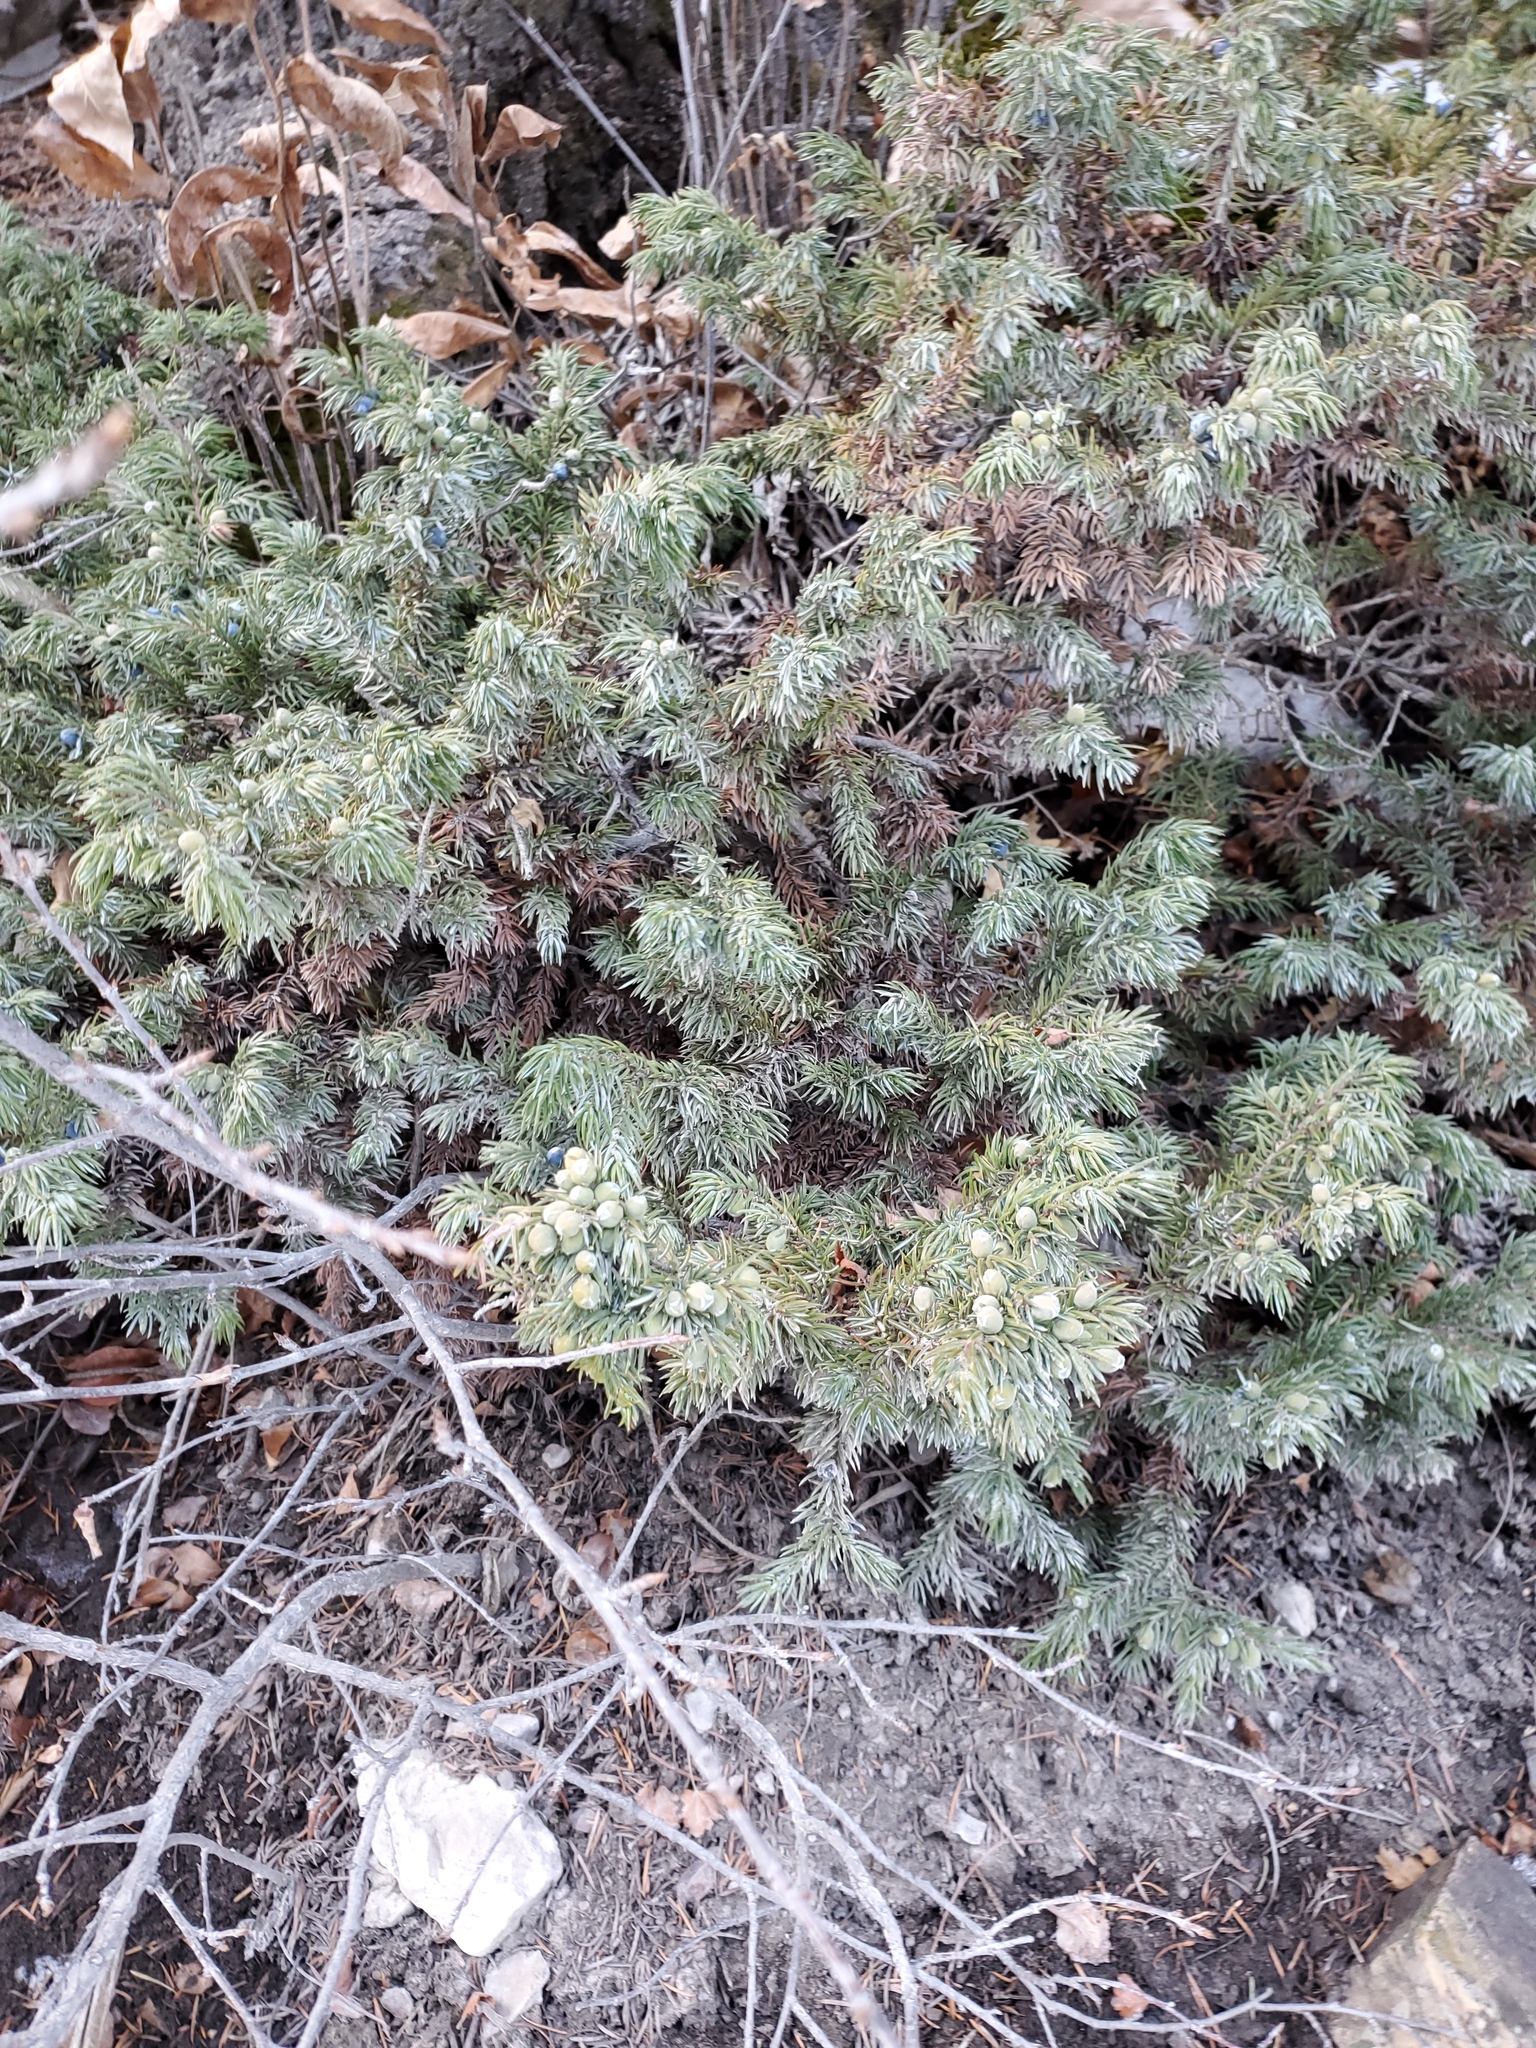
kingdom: Plantae
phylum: Tracheophyta
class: Pinopsida
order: Pinales
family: Cupressaceae
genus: Juniperus
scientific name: Juniperus communis
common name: Common juniper
